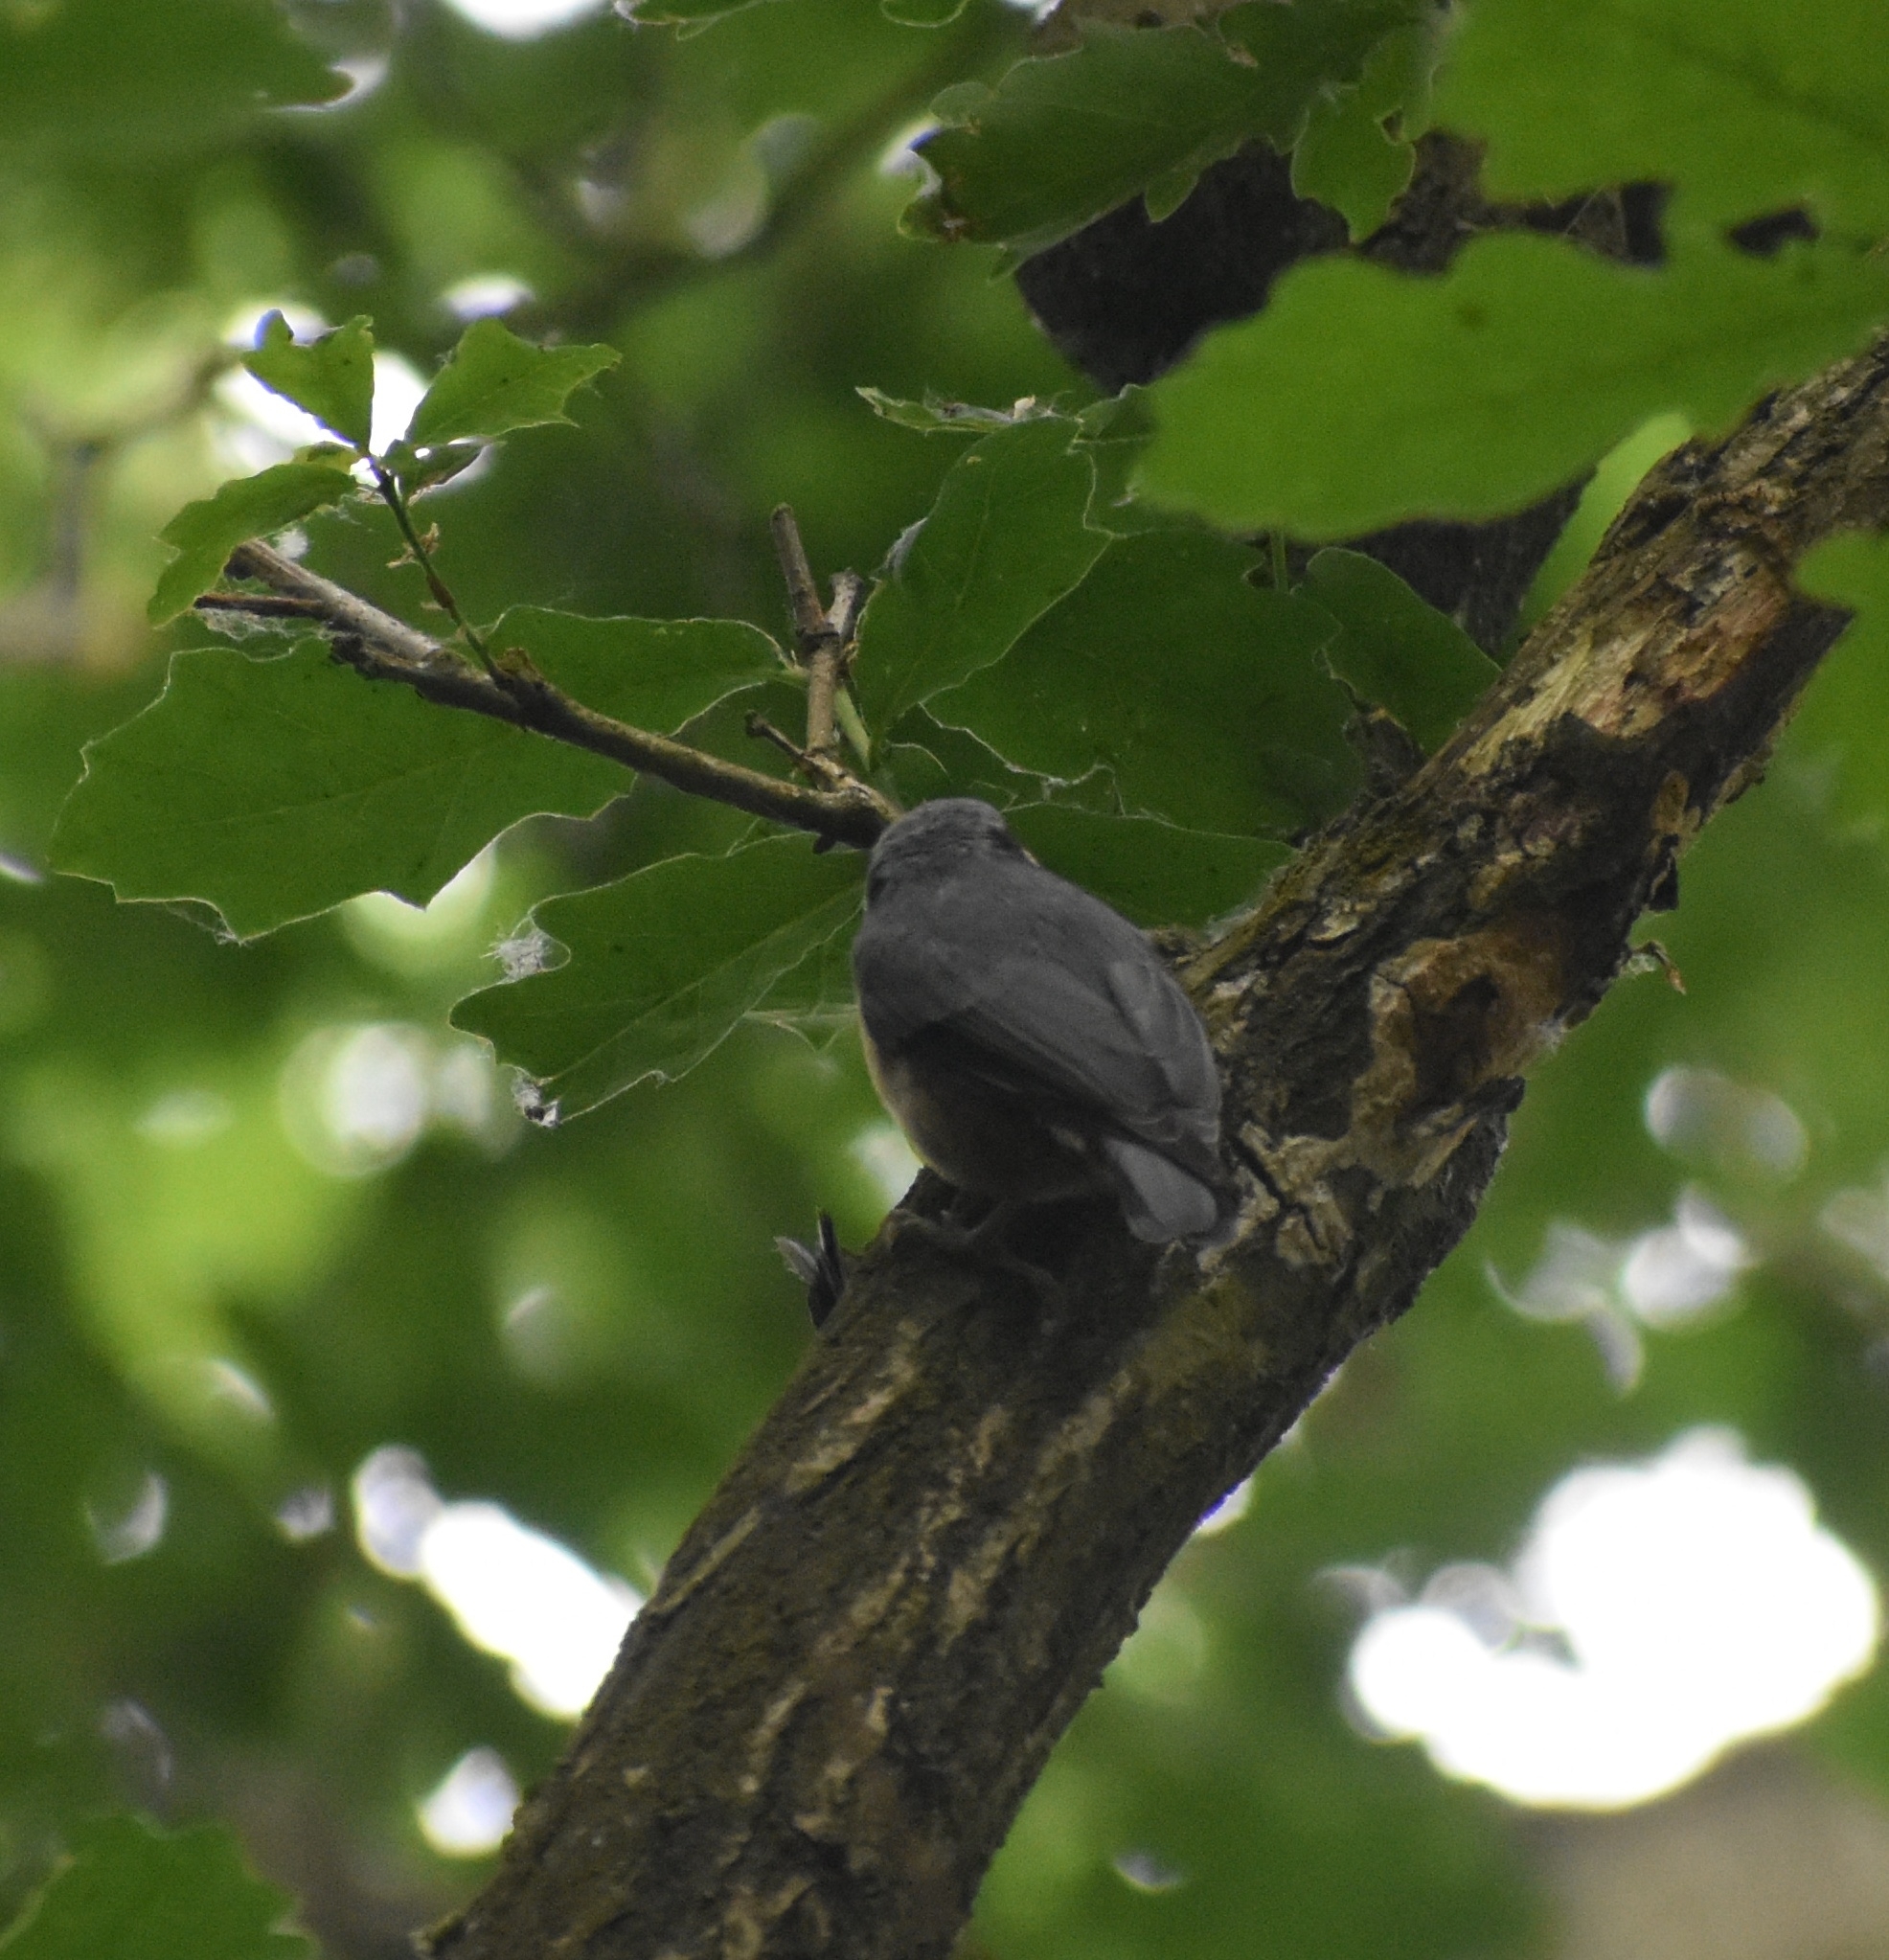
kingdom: Animalia
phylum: Chordata
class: Aves
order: Passeriformes
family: Sittidae
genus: Sitta
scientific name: Sitta europaea
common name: Eurasian nuthatch
